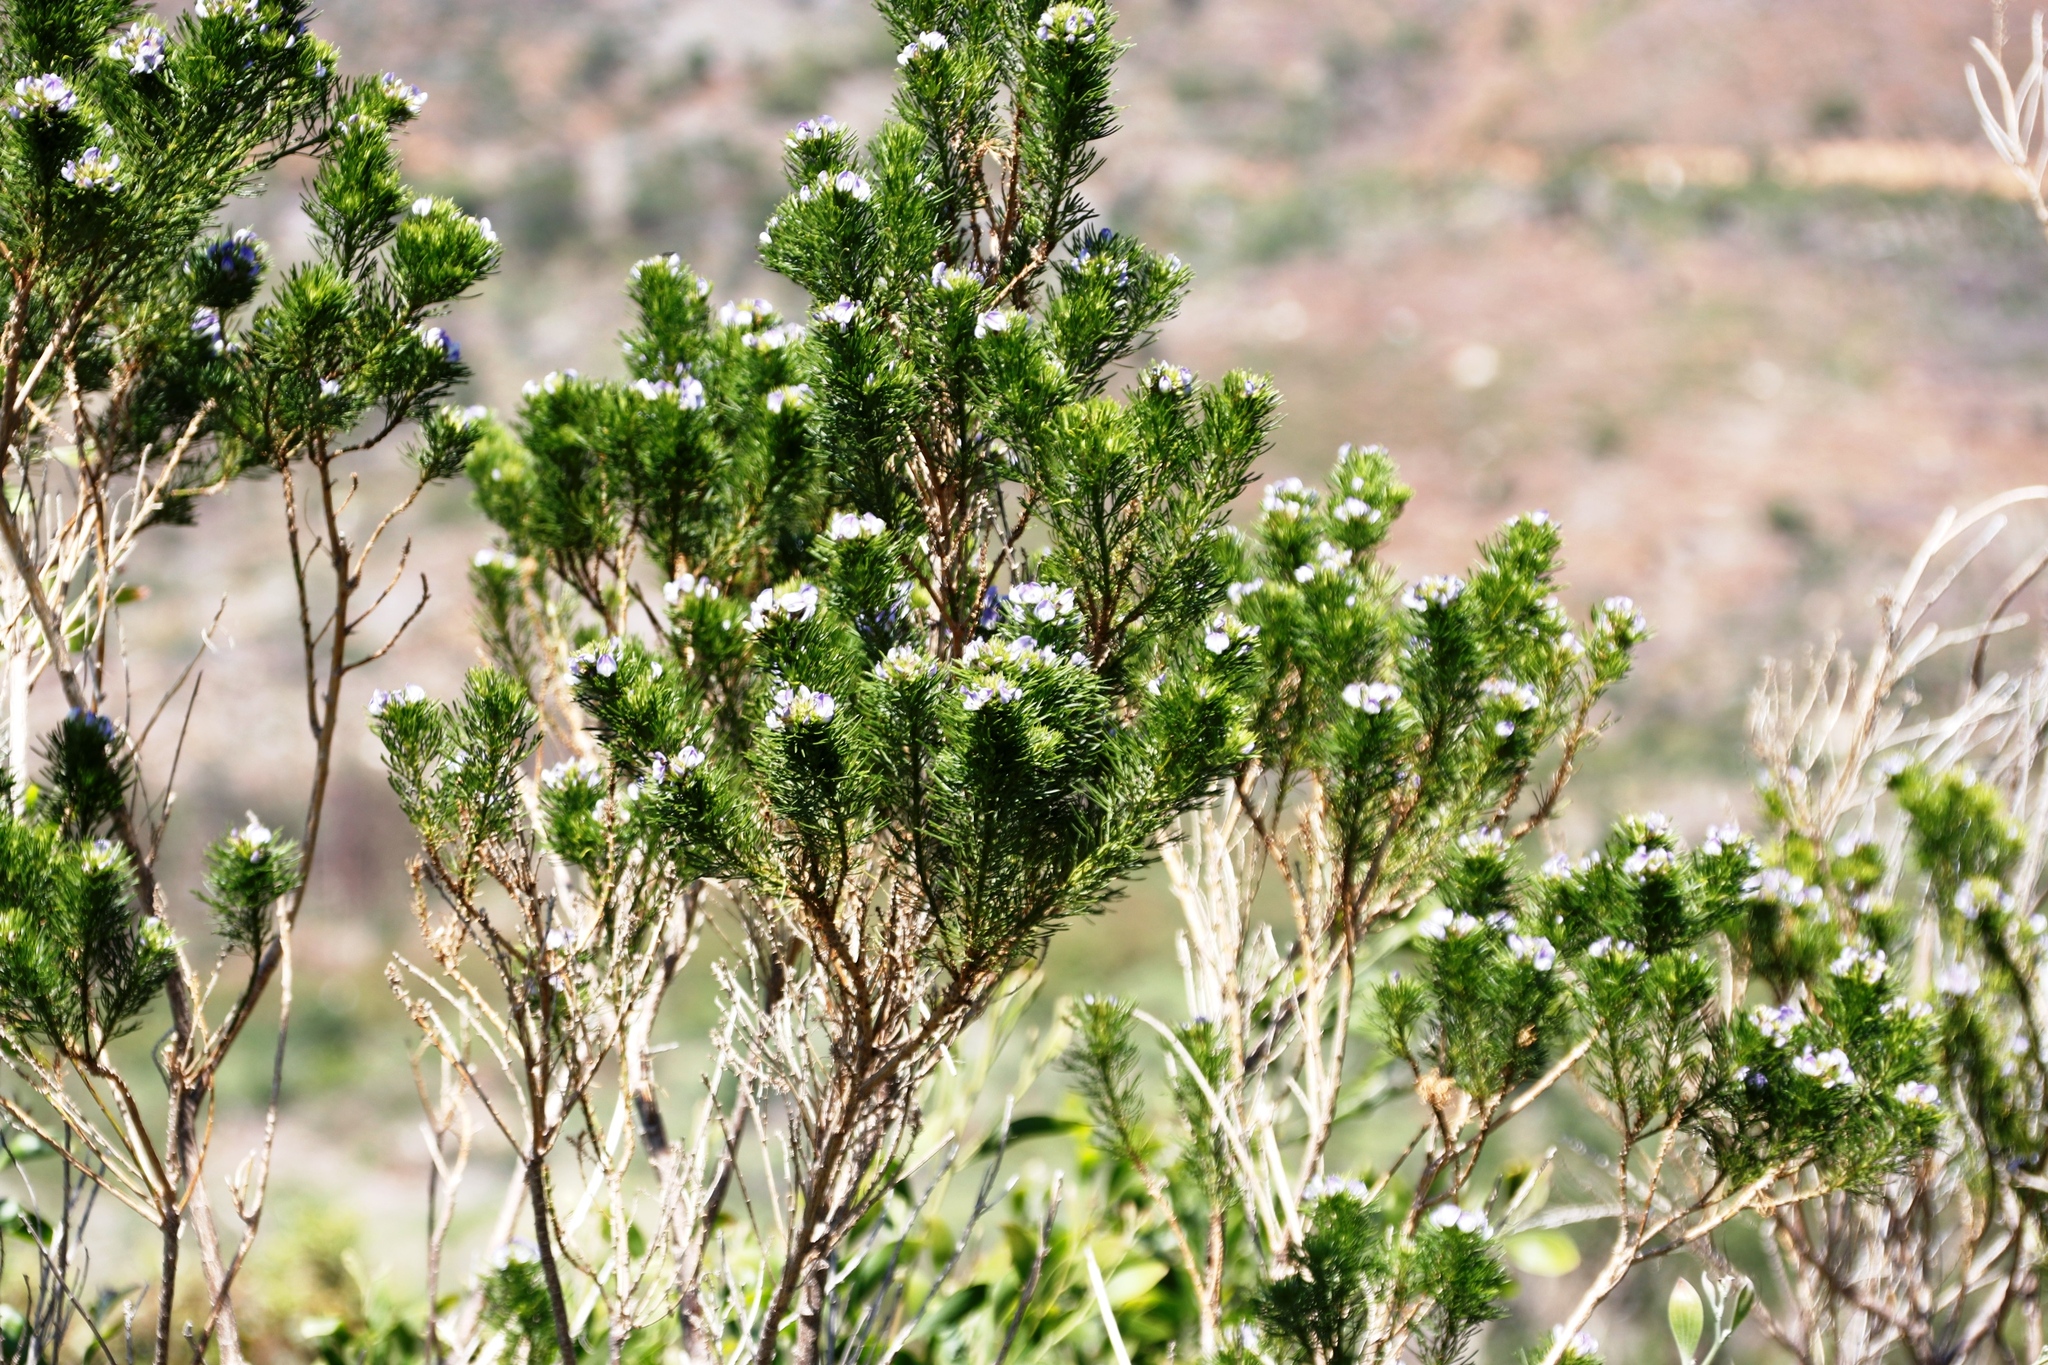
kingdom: Plantae
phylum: Tracheophyta
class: Magnoliopsida
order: Fabales
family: Fabaceae
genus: Psoralea
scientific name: Psoralea pinnata
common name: African scurfpea
